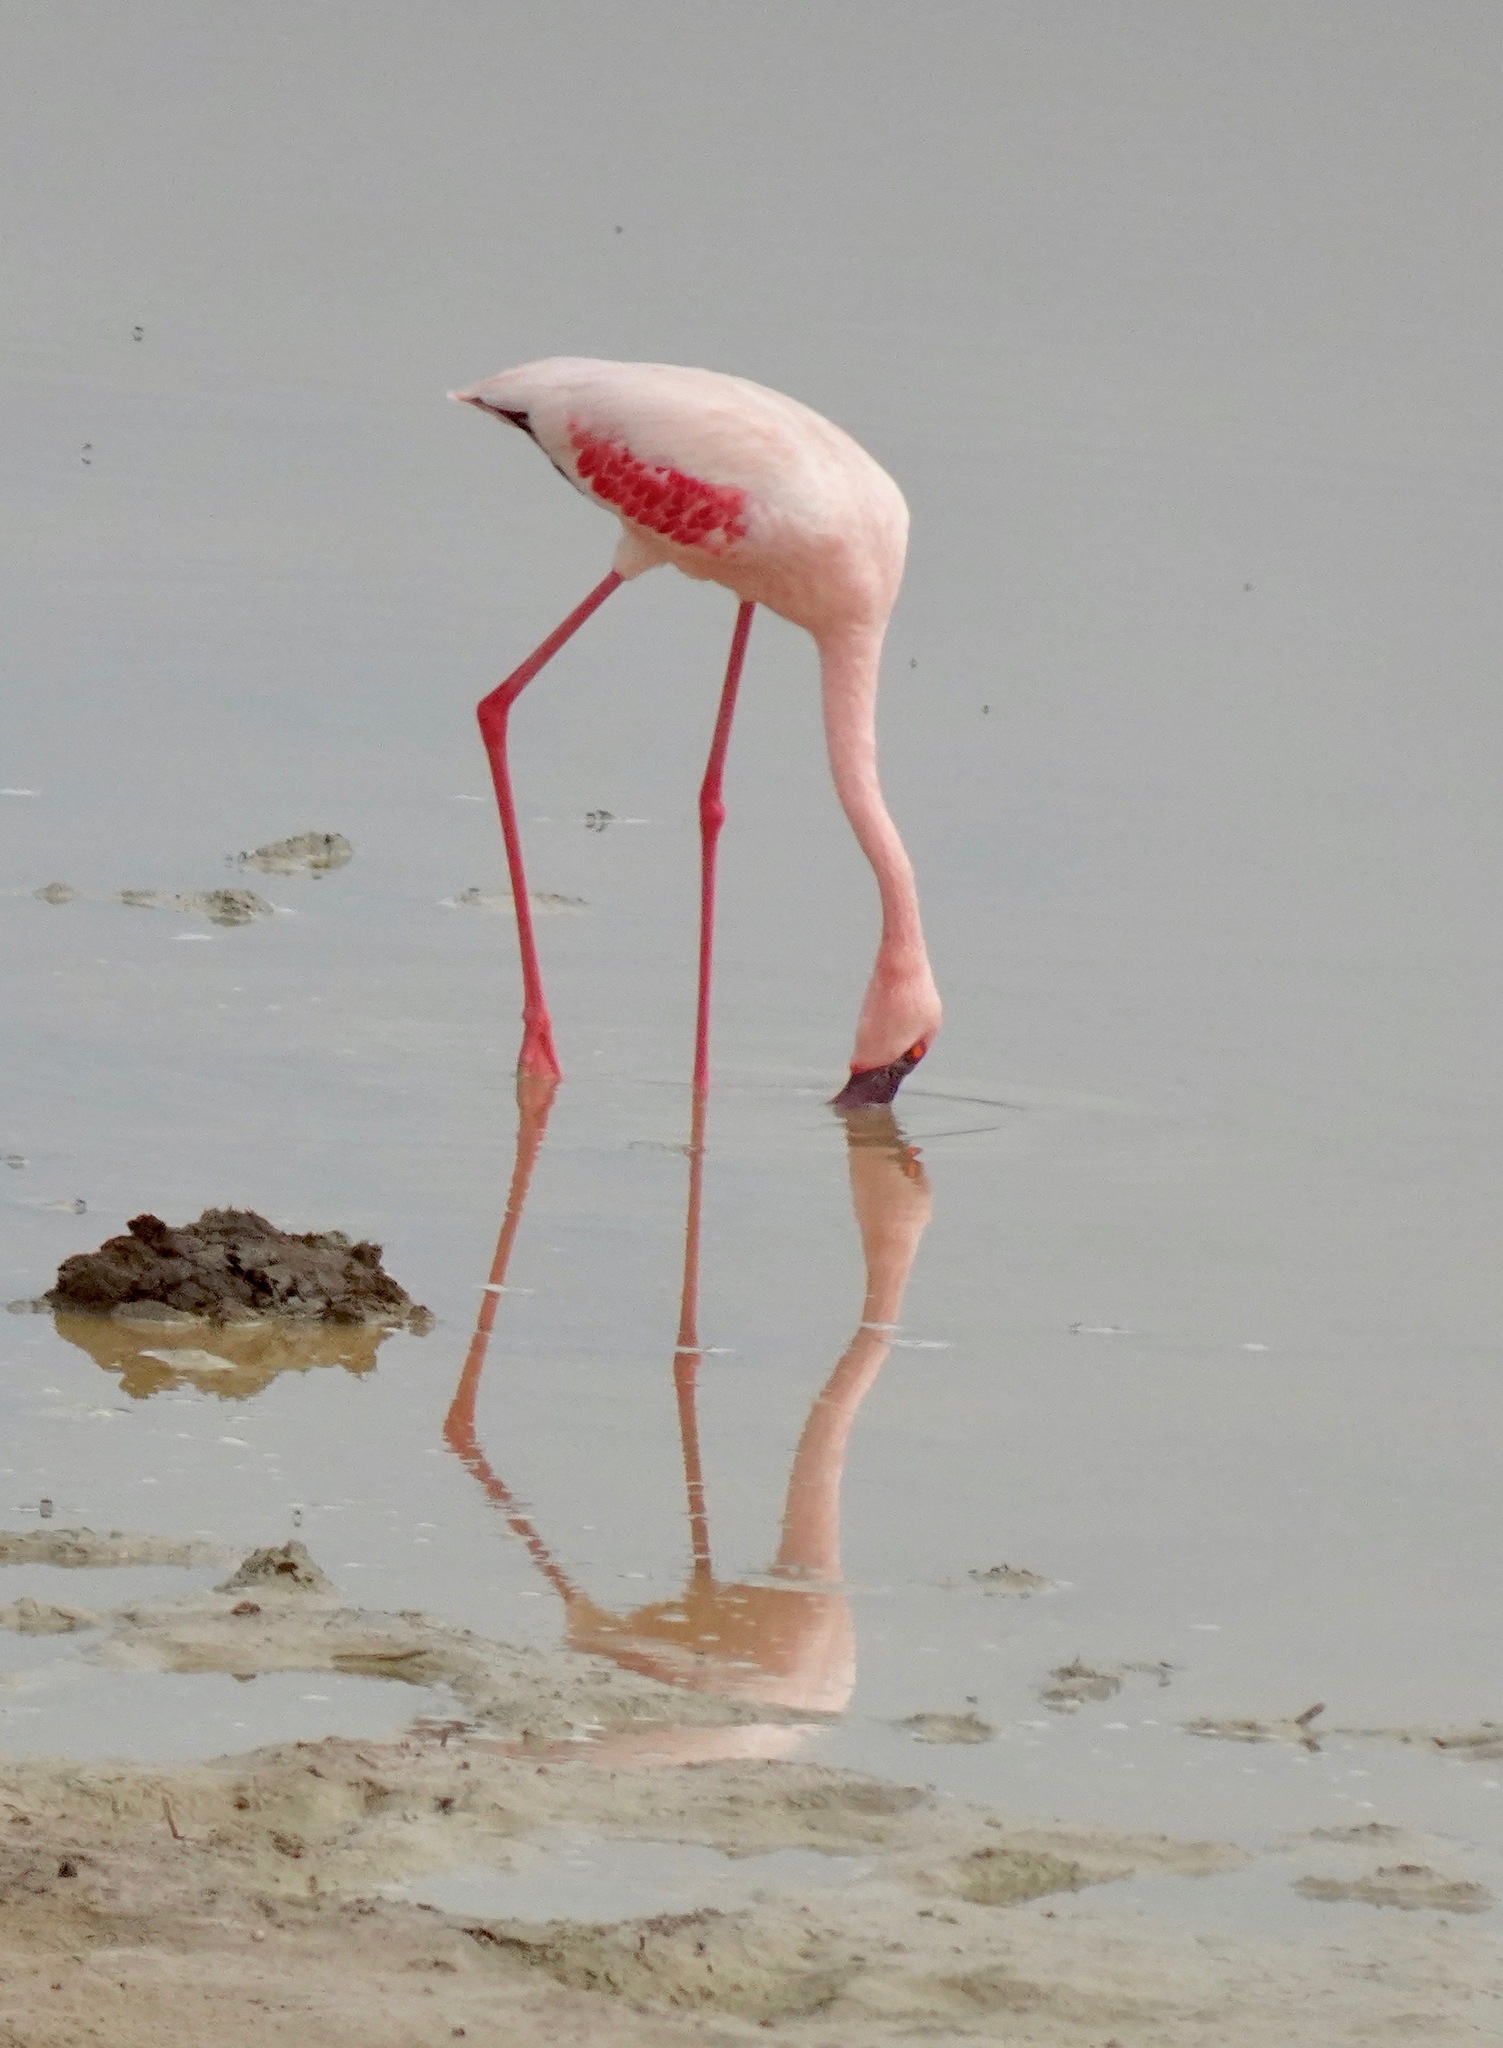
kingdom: Animalia
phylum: Chordata
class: Aves
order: Phoenicopteriformes
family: Phoenicopteridae
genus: Phoeniconaias
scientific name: Phoeniconaias minor
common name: Lesser flamingo
